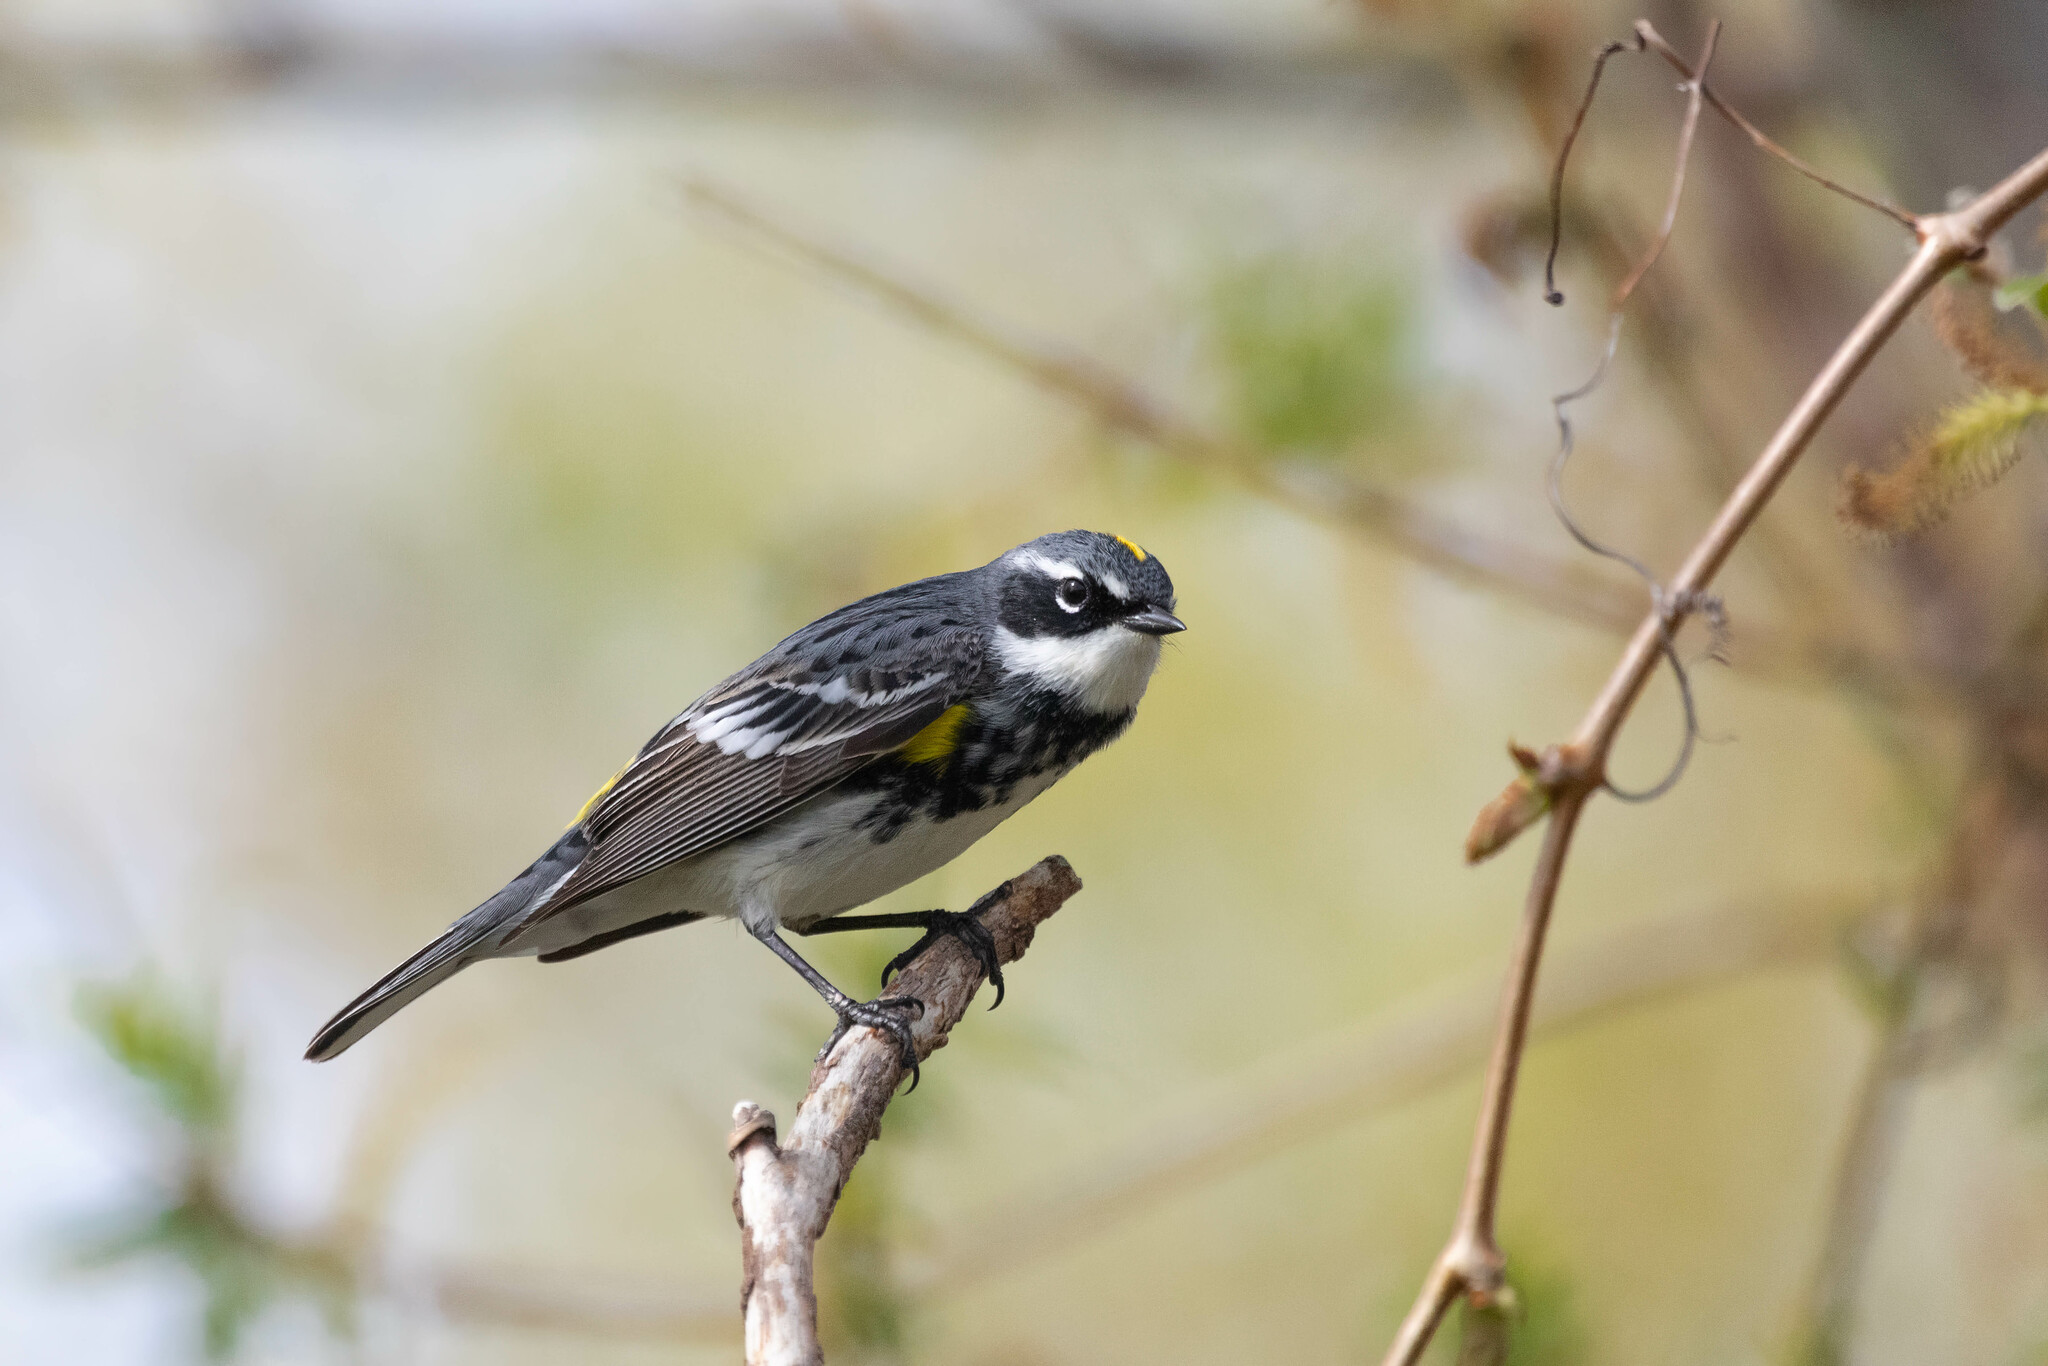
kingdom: Animalia
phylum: Chordata
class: Aves
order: Passeriformes
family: Parulidae
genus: Setophaga
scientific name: Setophaga coronata
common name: Myrtle warbler
